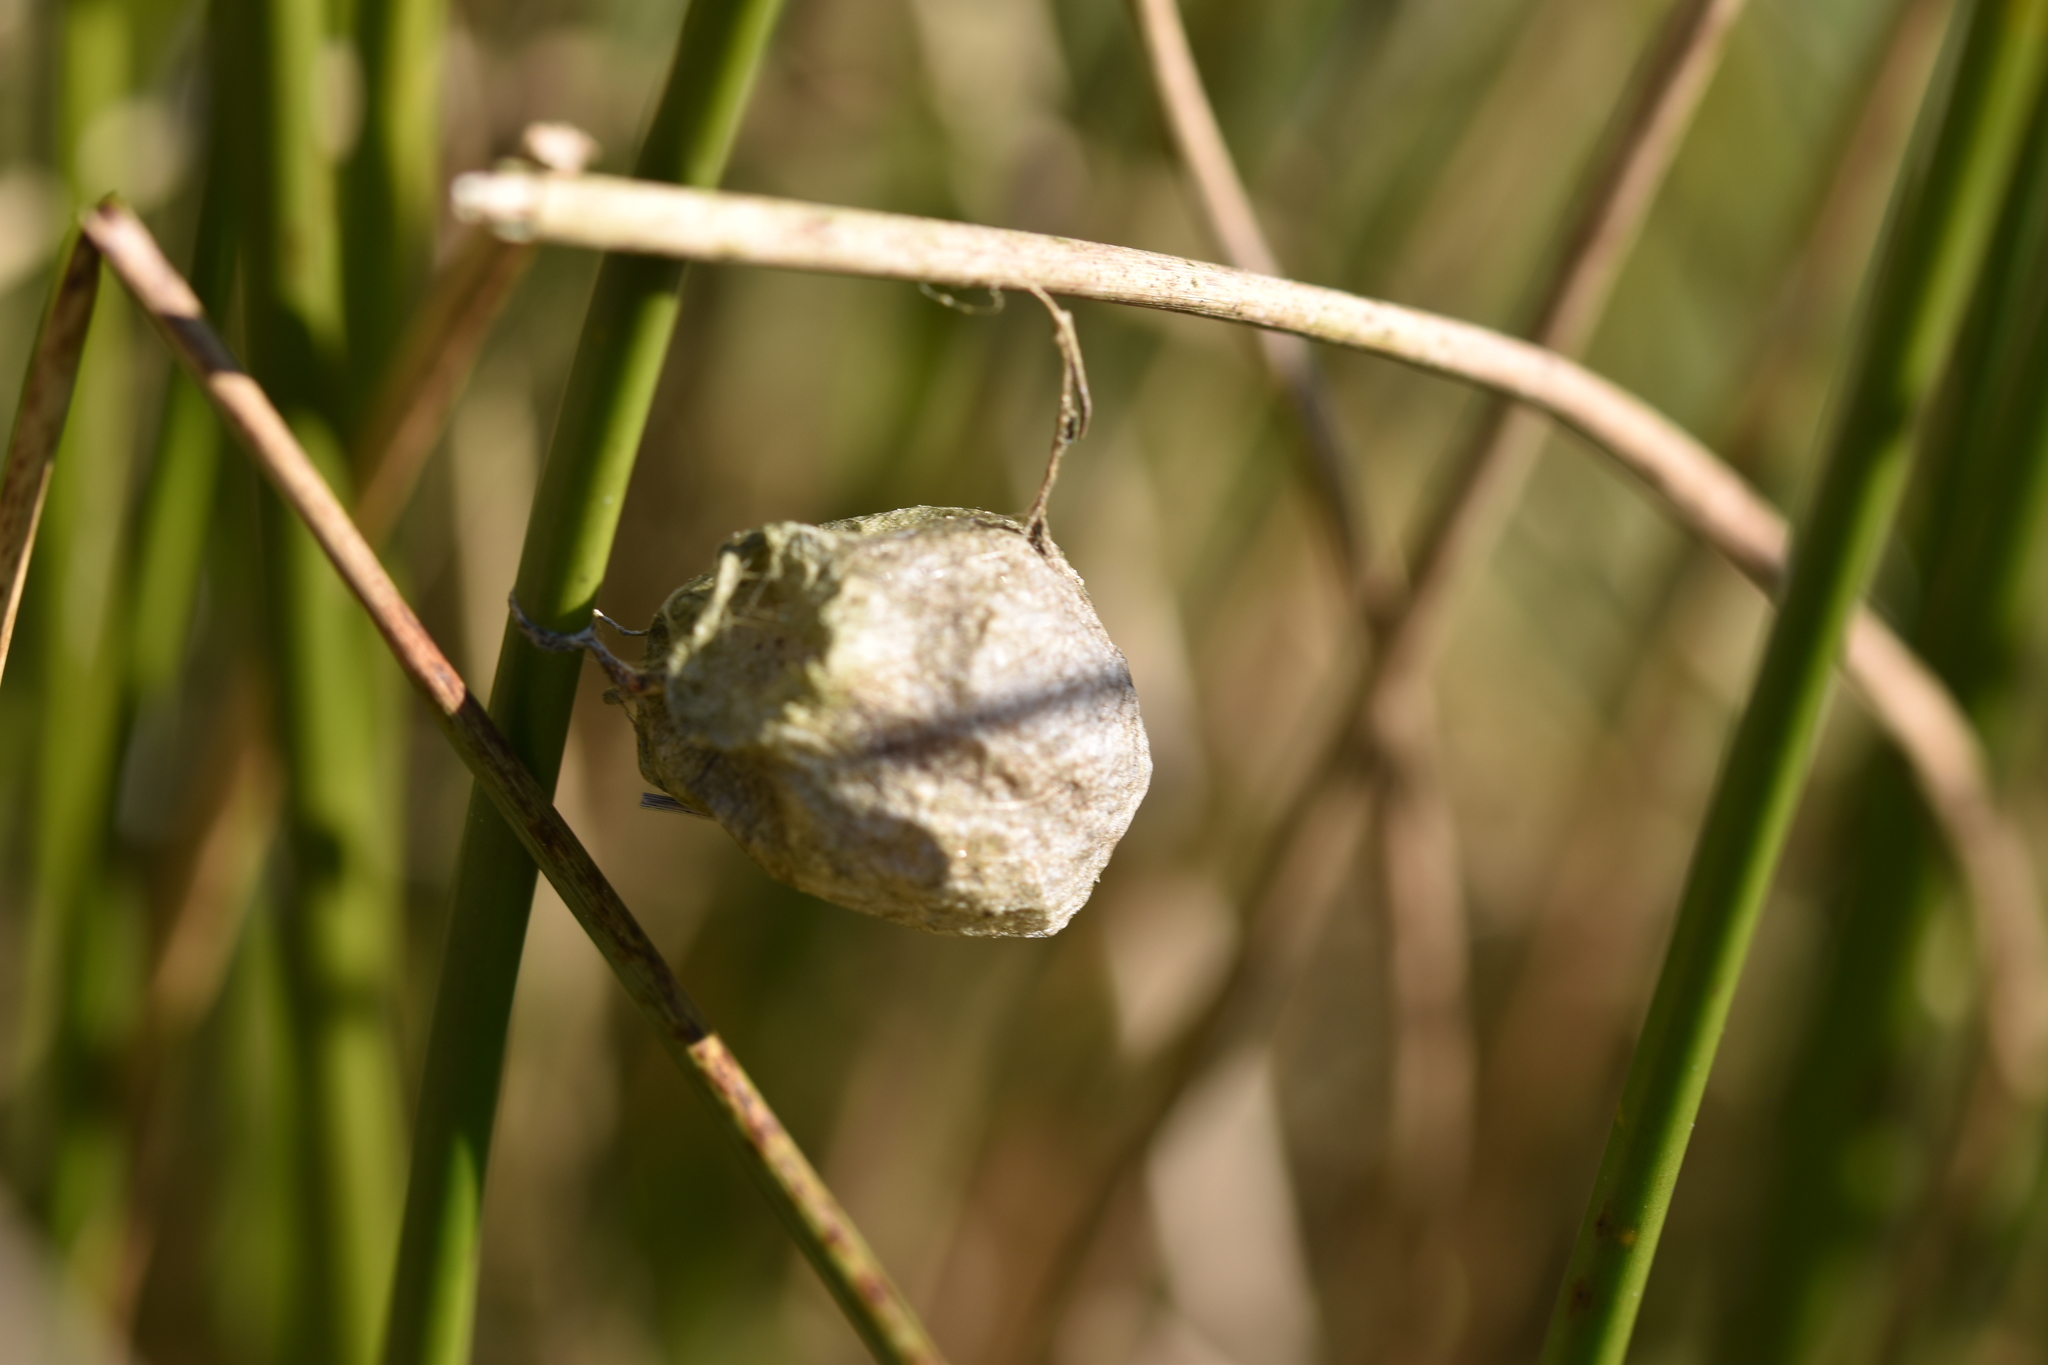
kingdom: Animalia
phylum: Arthropoda
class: Arachnida
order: Araneae
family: Araneidae
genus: Argiope
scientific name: Argiope bruennichi
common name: Wasp spider
